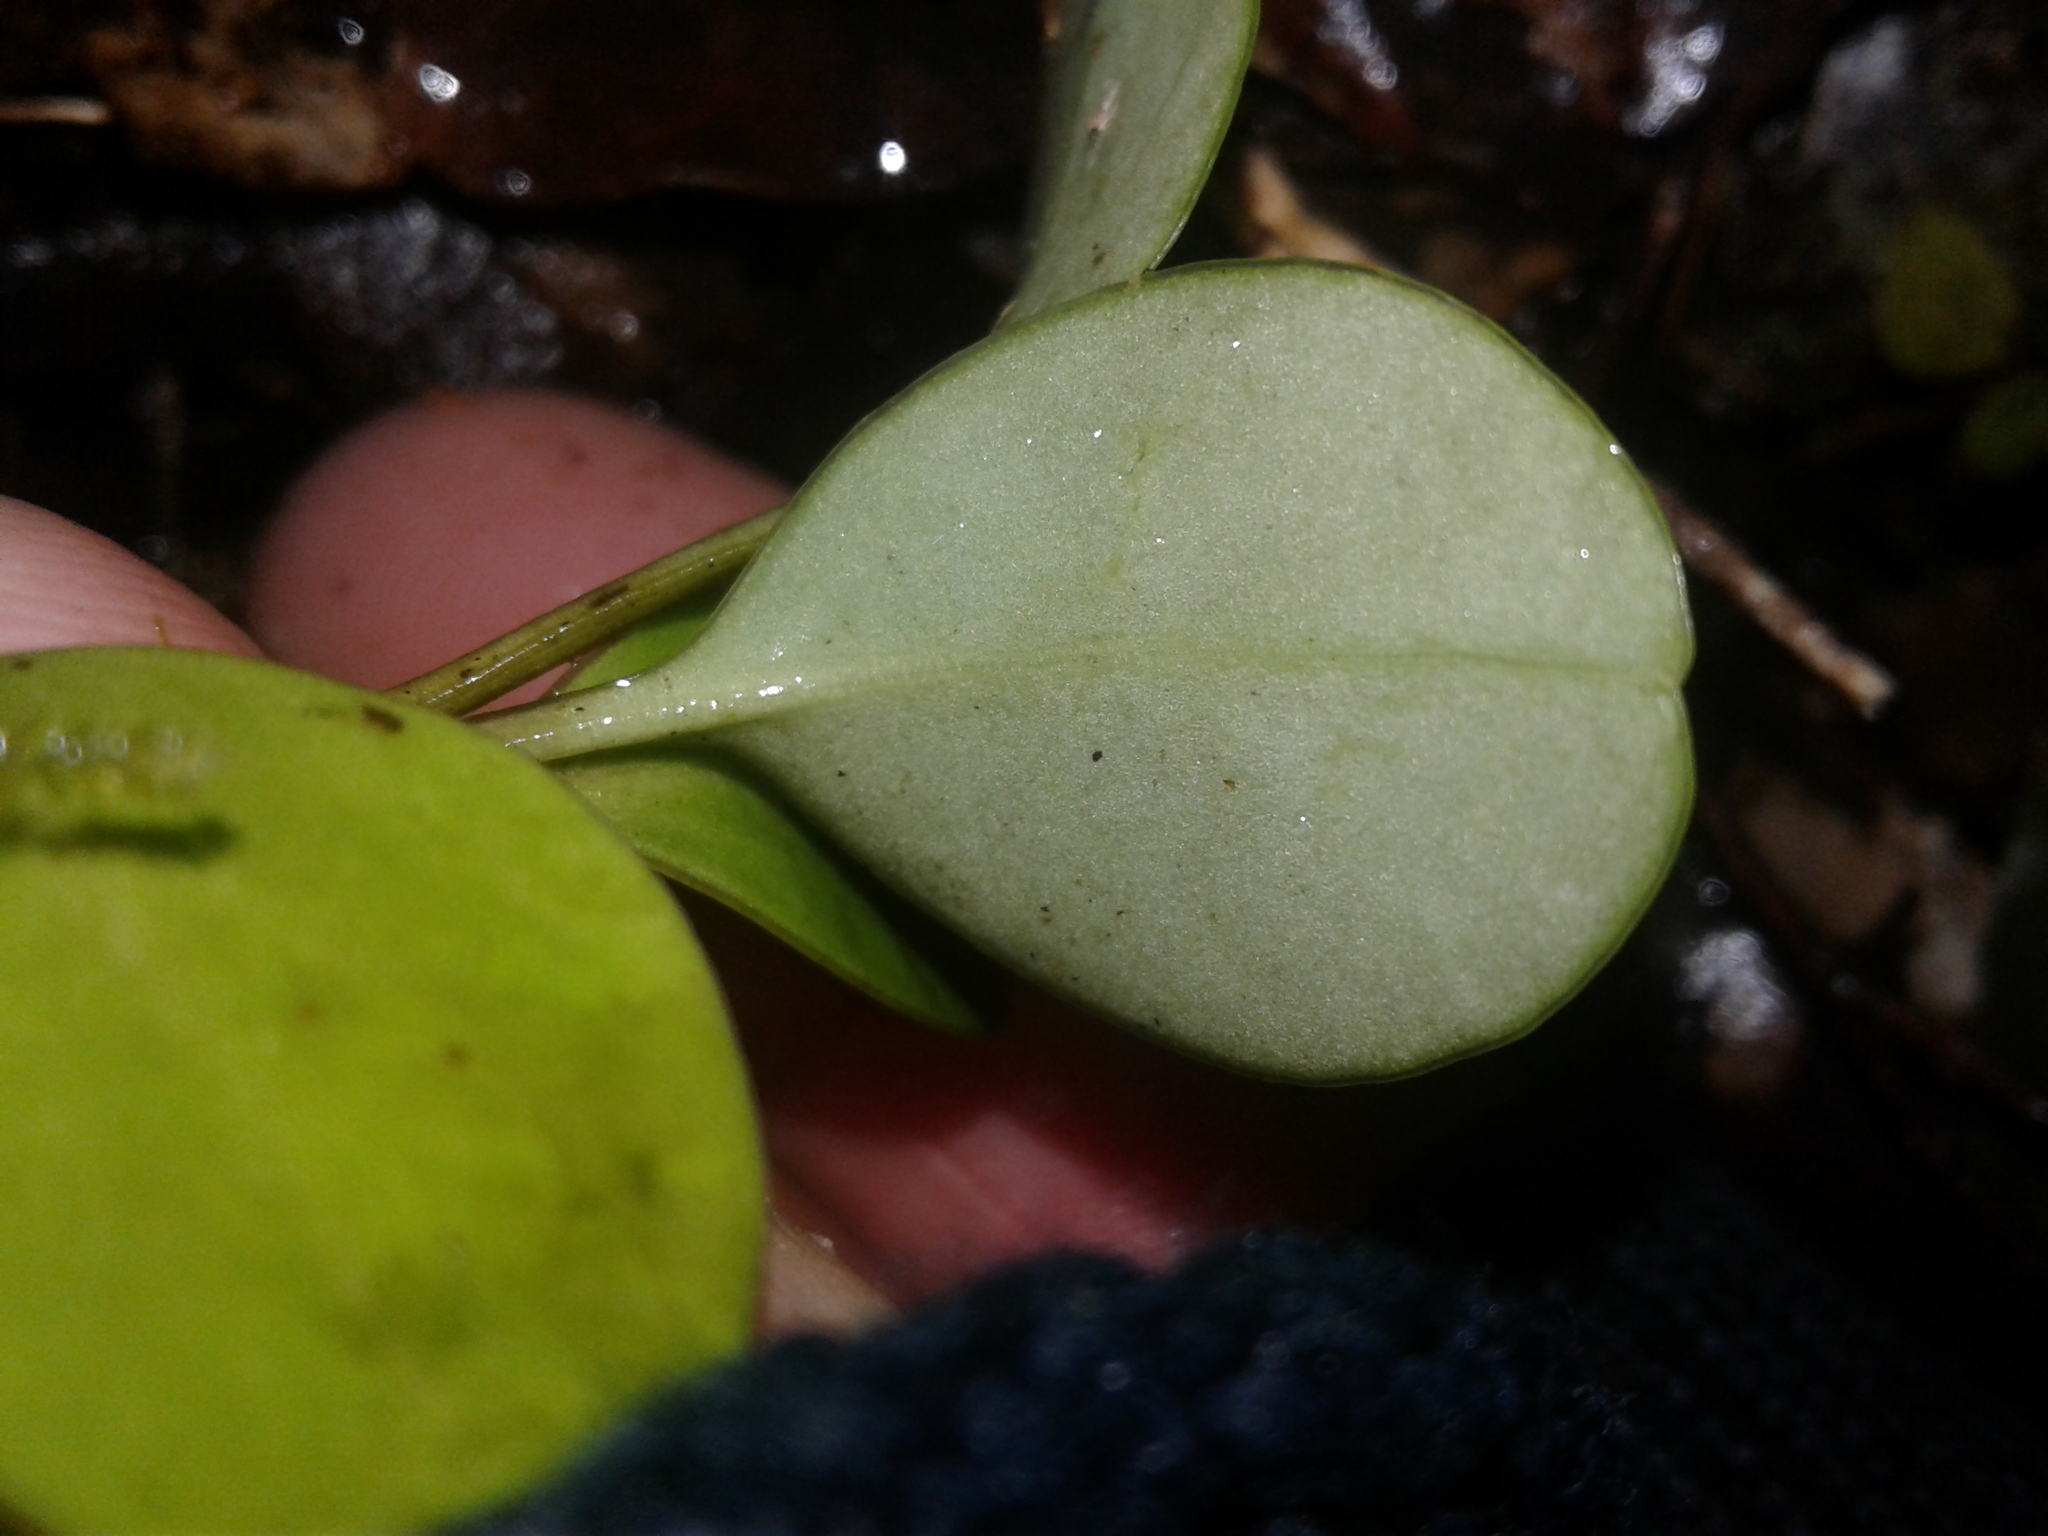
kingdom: Plantae
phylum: Tracheophyta
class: Magnoliopsida
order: Apiales
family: Griseliniaceae
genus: Griselinia
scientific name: Griselinia littoralis
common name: New zealand broadleaf
